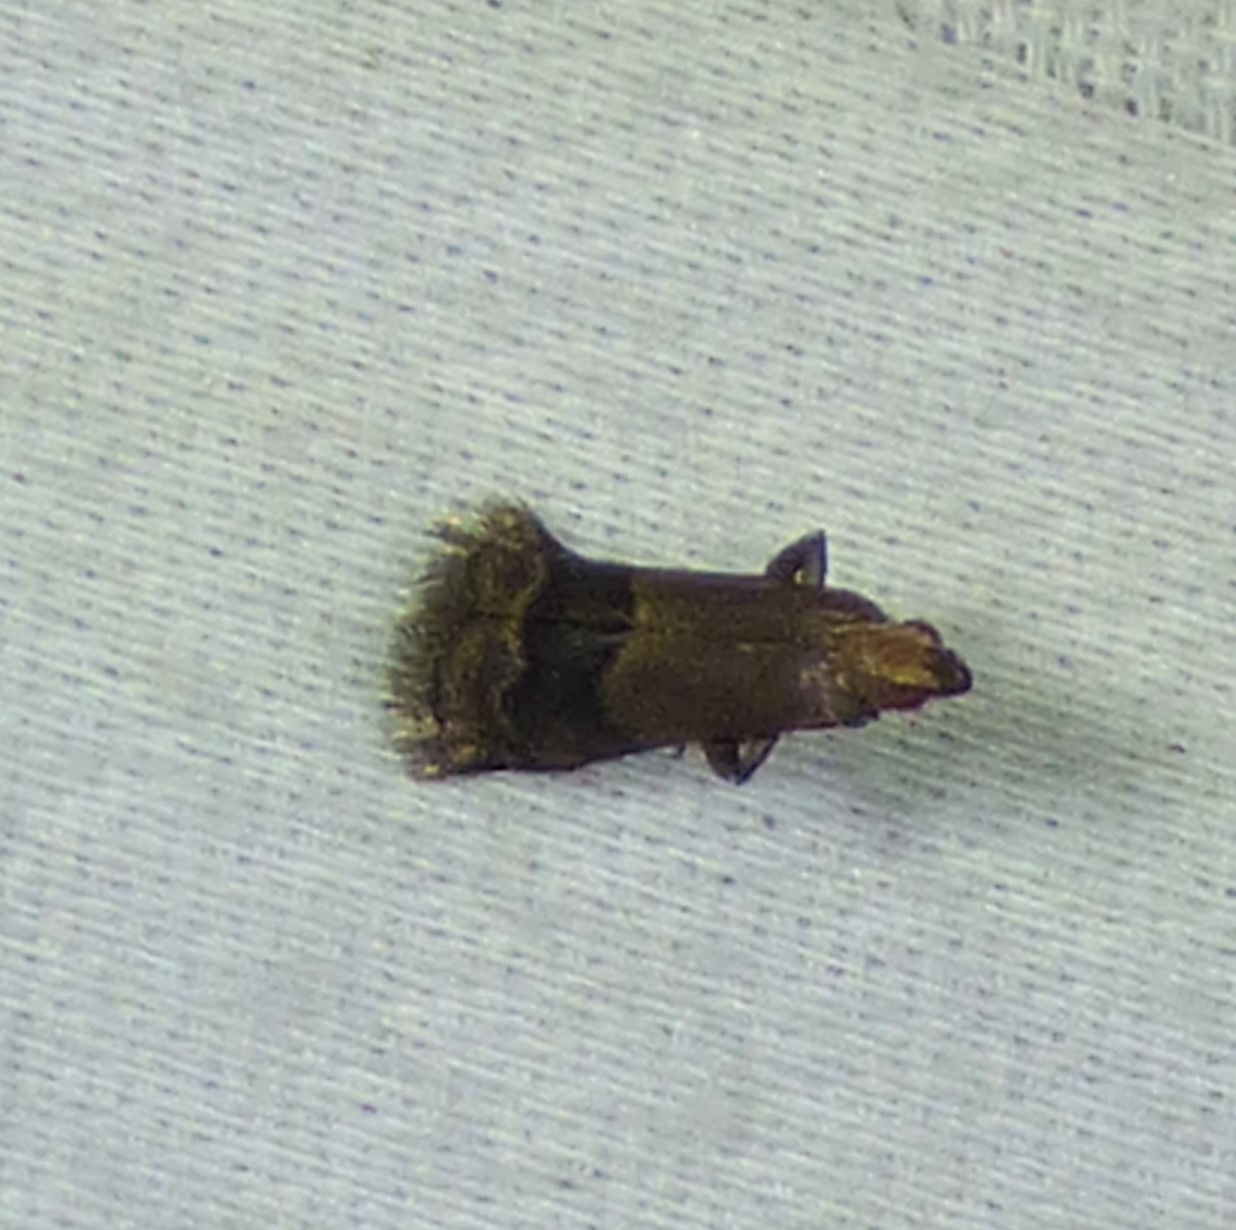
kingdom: Animalia
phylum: Arthropoda
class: Insecta
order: Lepidoptera
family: Pyralidae
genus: Eulogia
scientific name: Eulogia ochrifrontella
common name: Broad-banded eulogia moth
